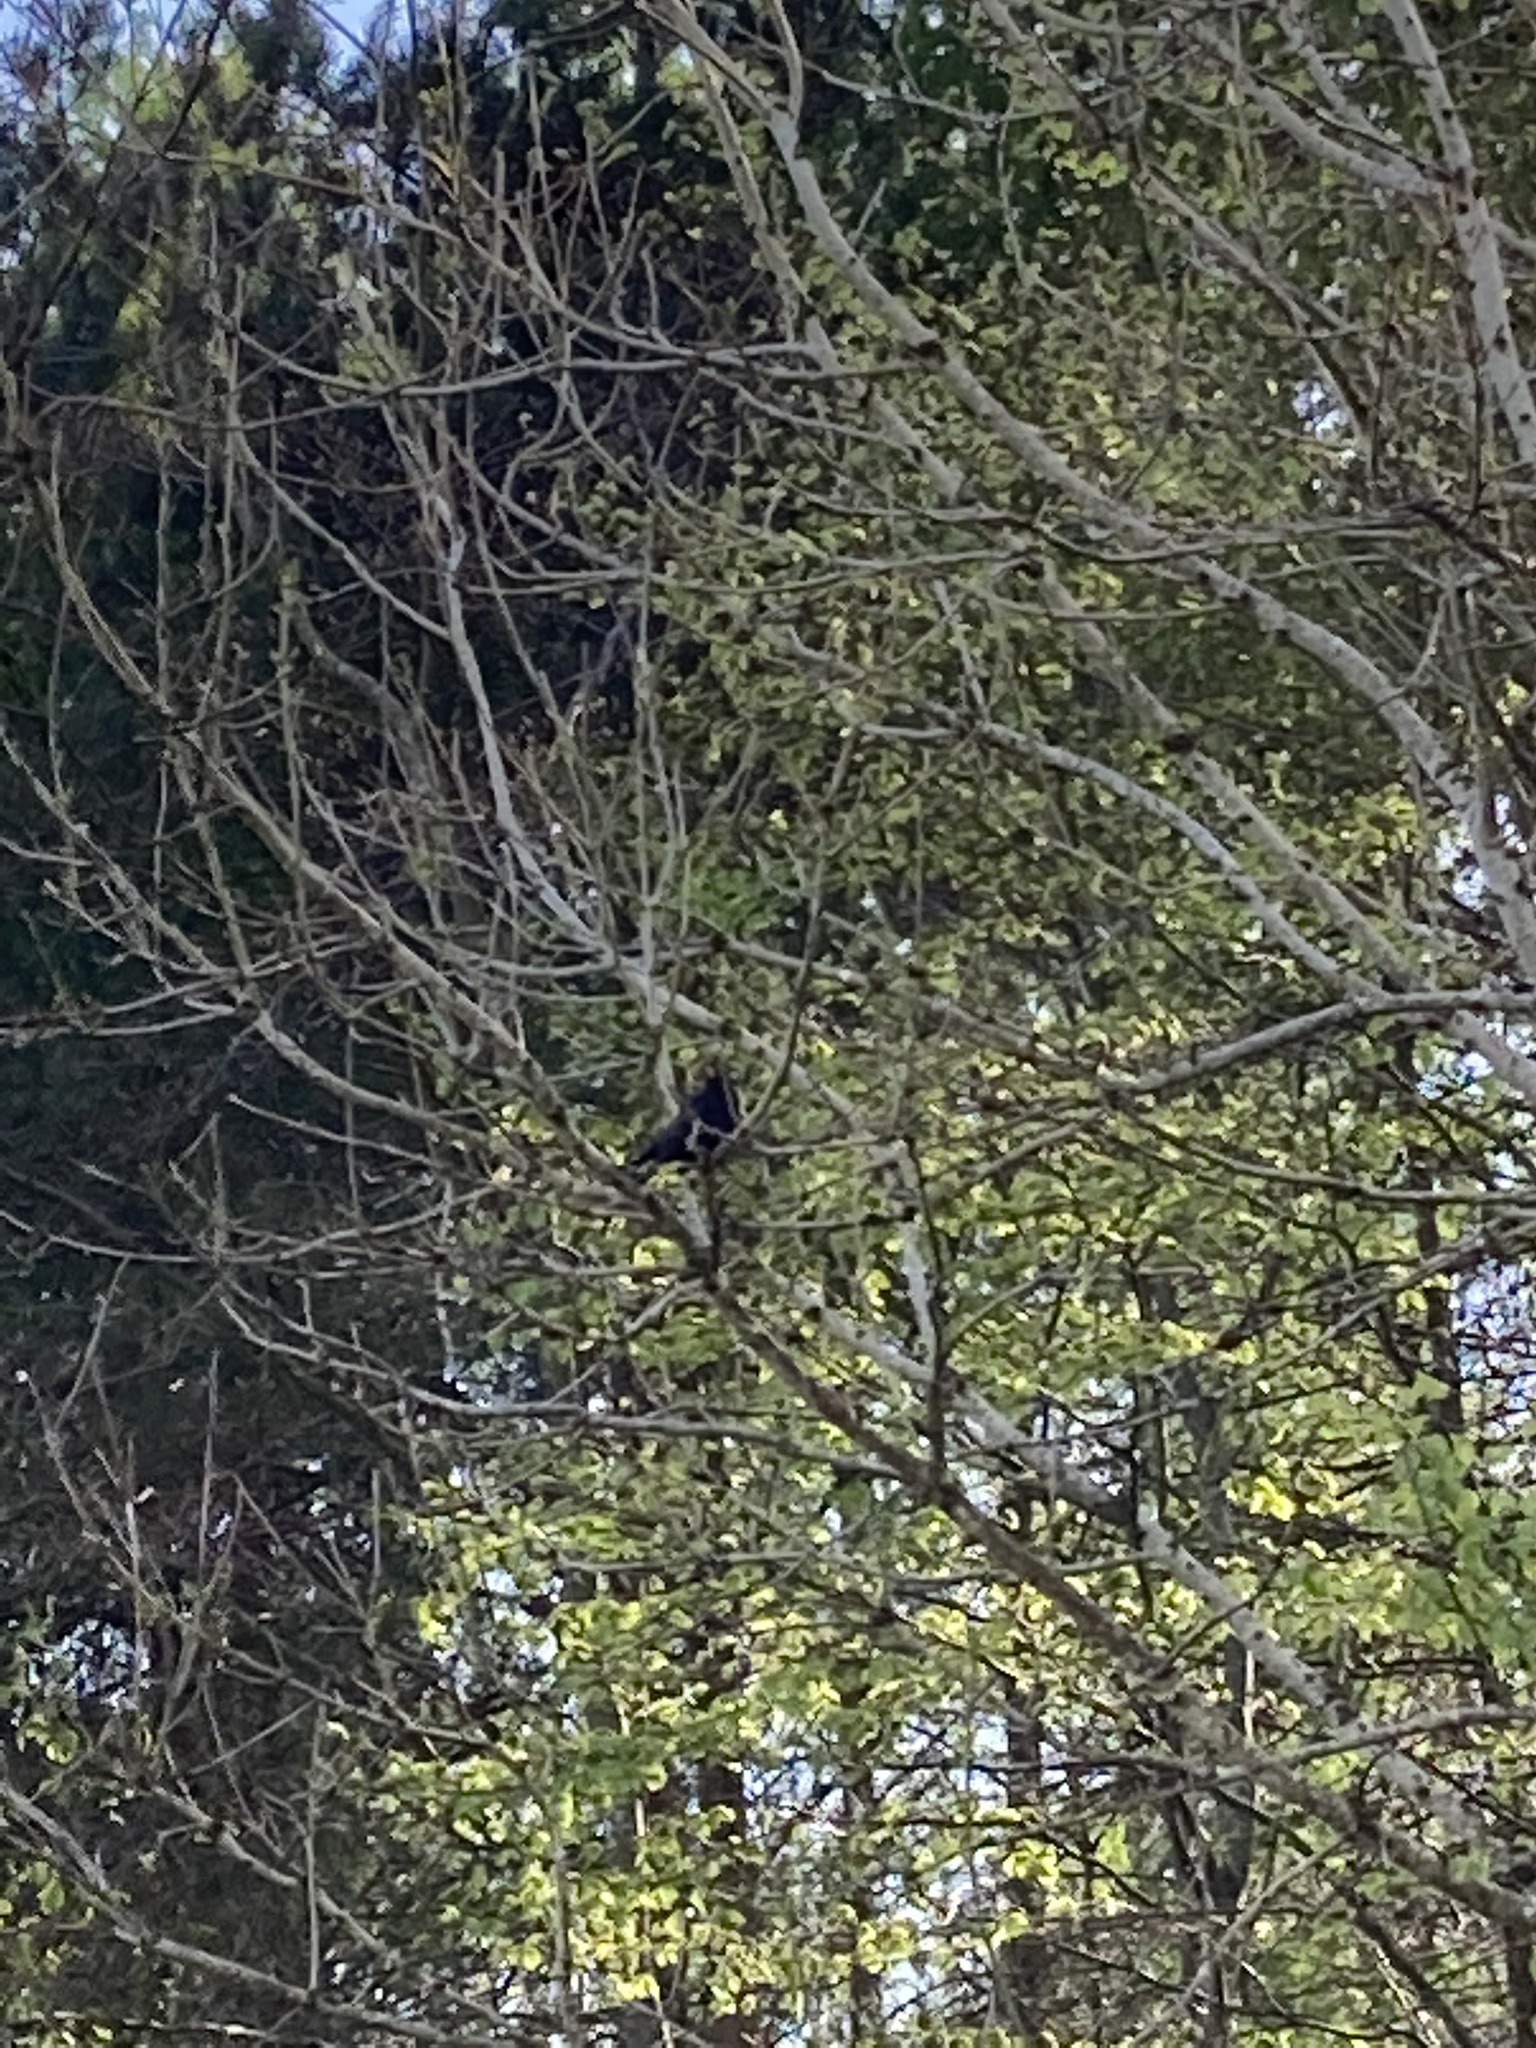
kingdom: Animalia
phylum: Chordata
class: Aves
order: Passeriformes
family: Turdidae
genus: Turdus
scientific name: Turdus merula
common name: Common blackbird
